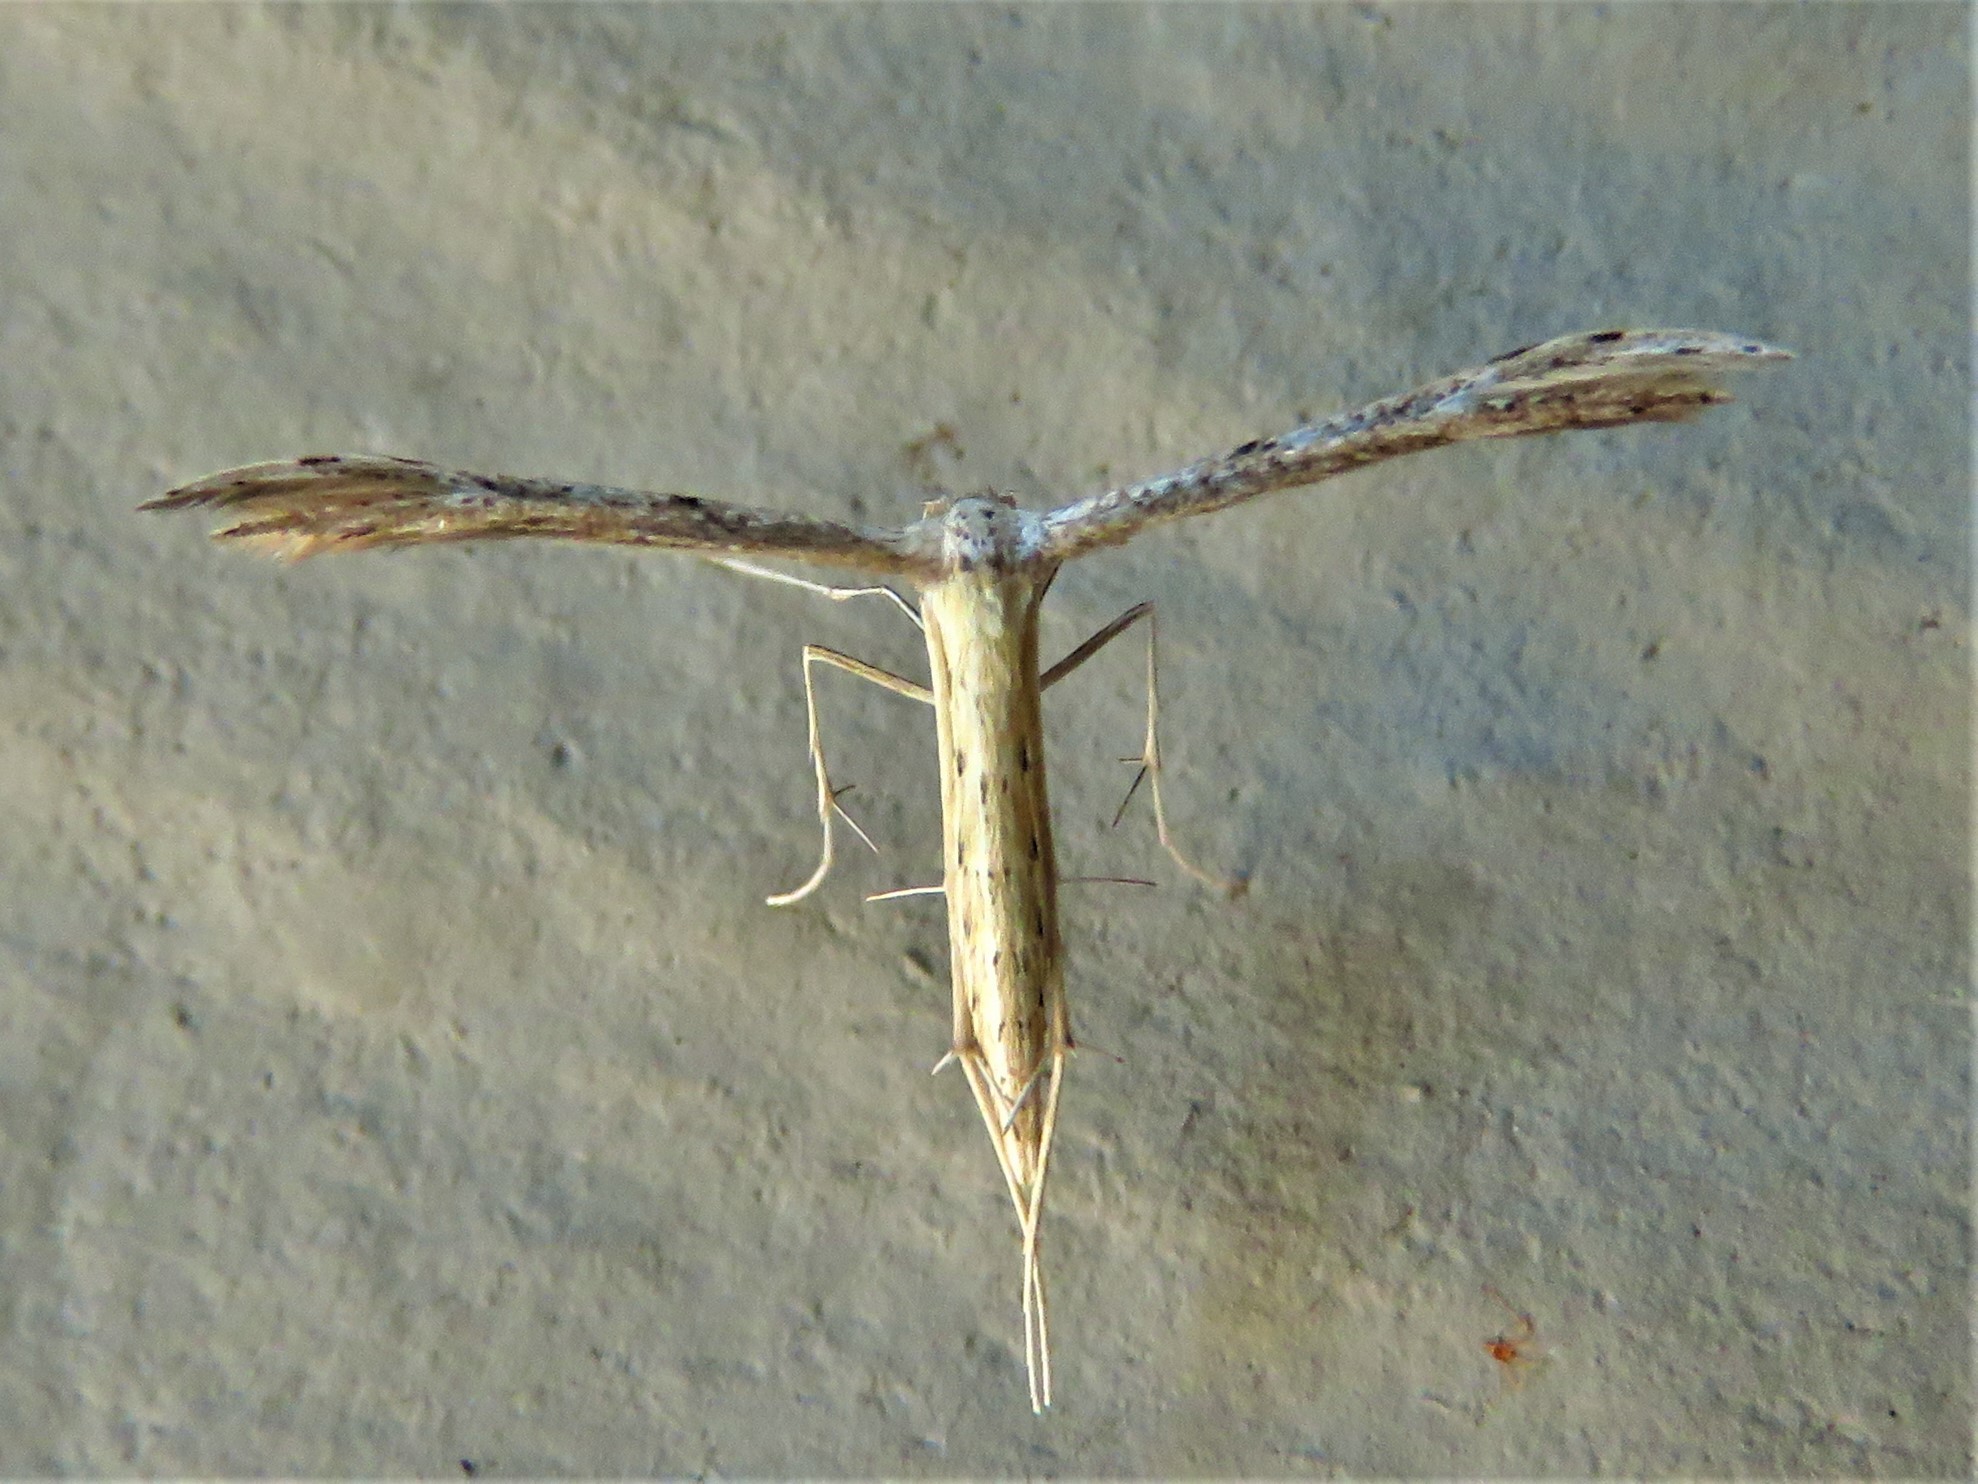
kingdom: Animalia
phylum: Arthropoda
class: Insecta
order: Lepidoptera
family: Pterophoridae
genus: Pselnophorus
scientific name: Pselnophorus belfragei
